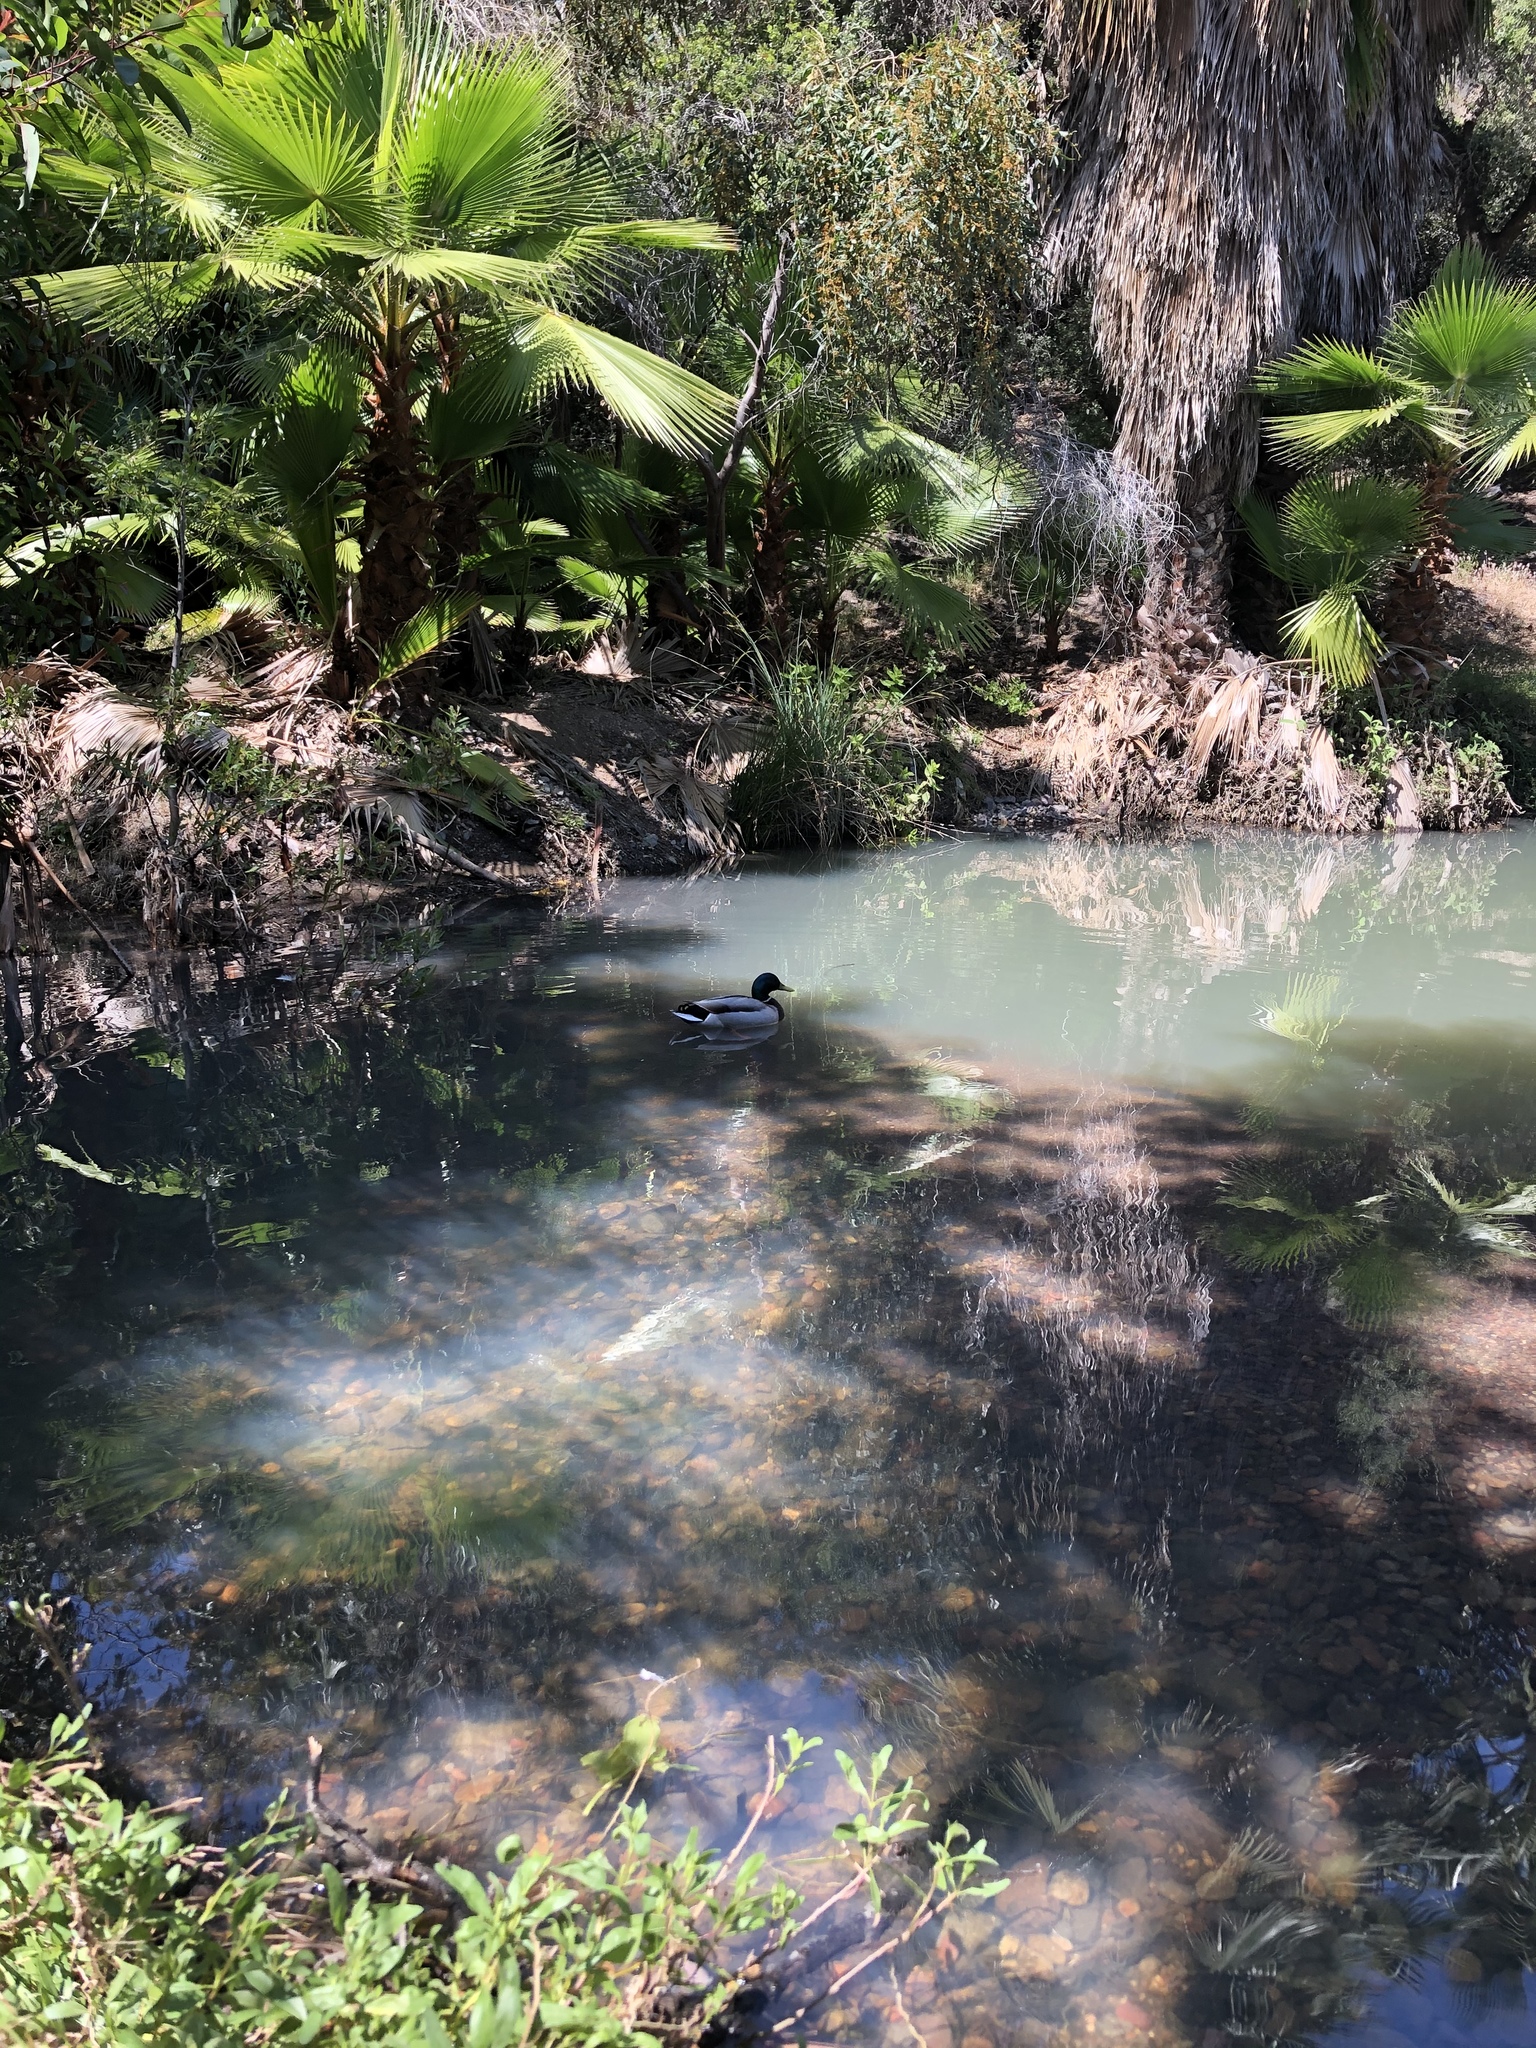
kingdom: Animalia
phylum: Chordata
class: Aves
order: Anseriformes
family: Anatidae
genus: Anas
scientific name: Anas platyrhynchos
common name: Mallard
